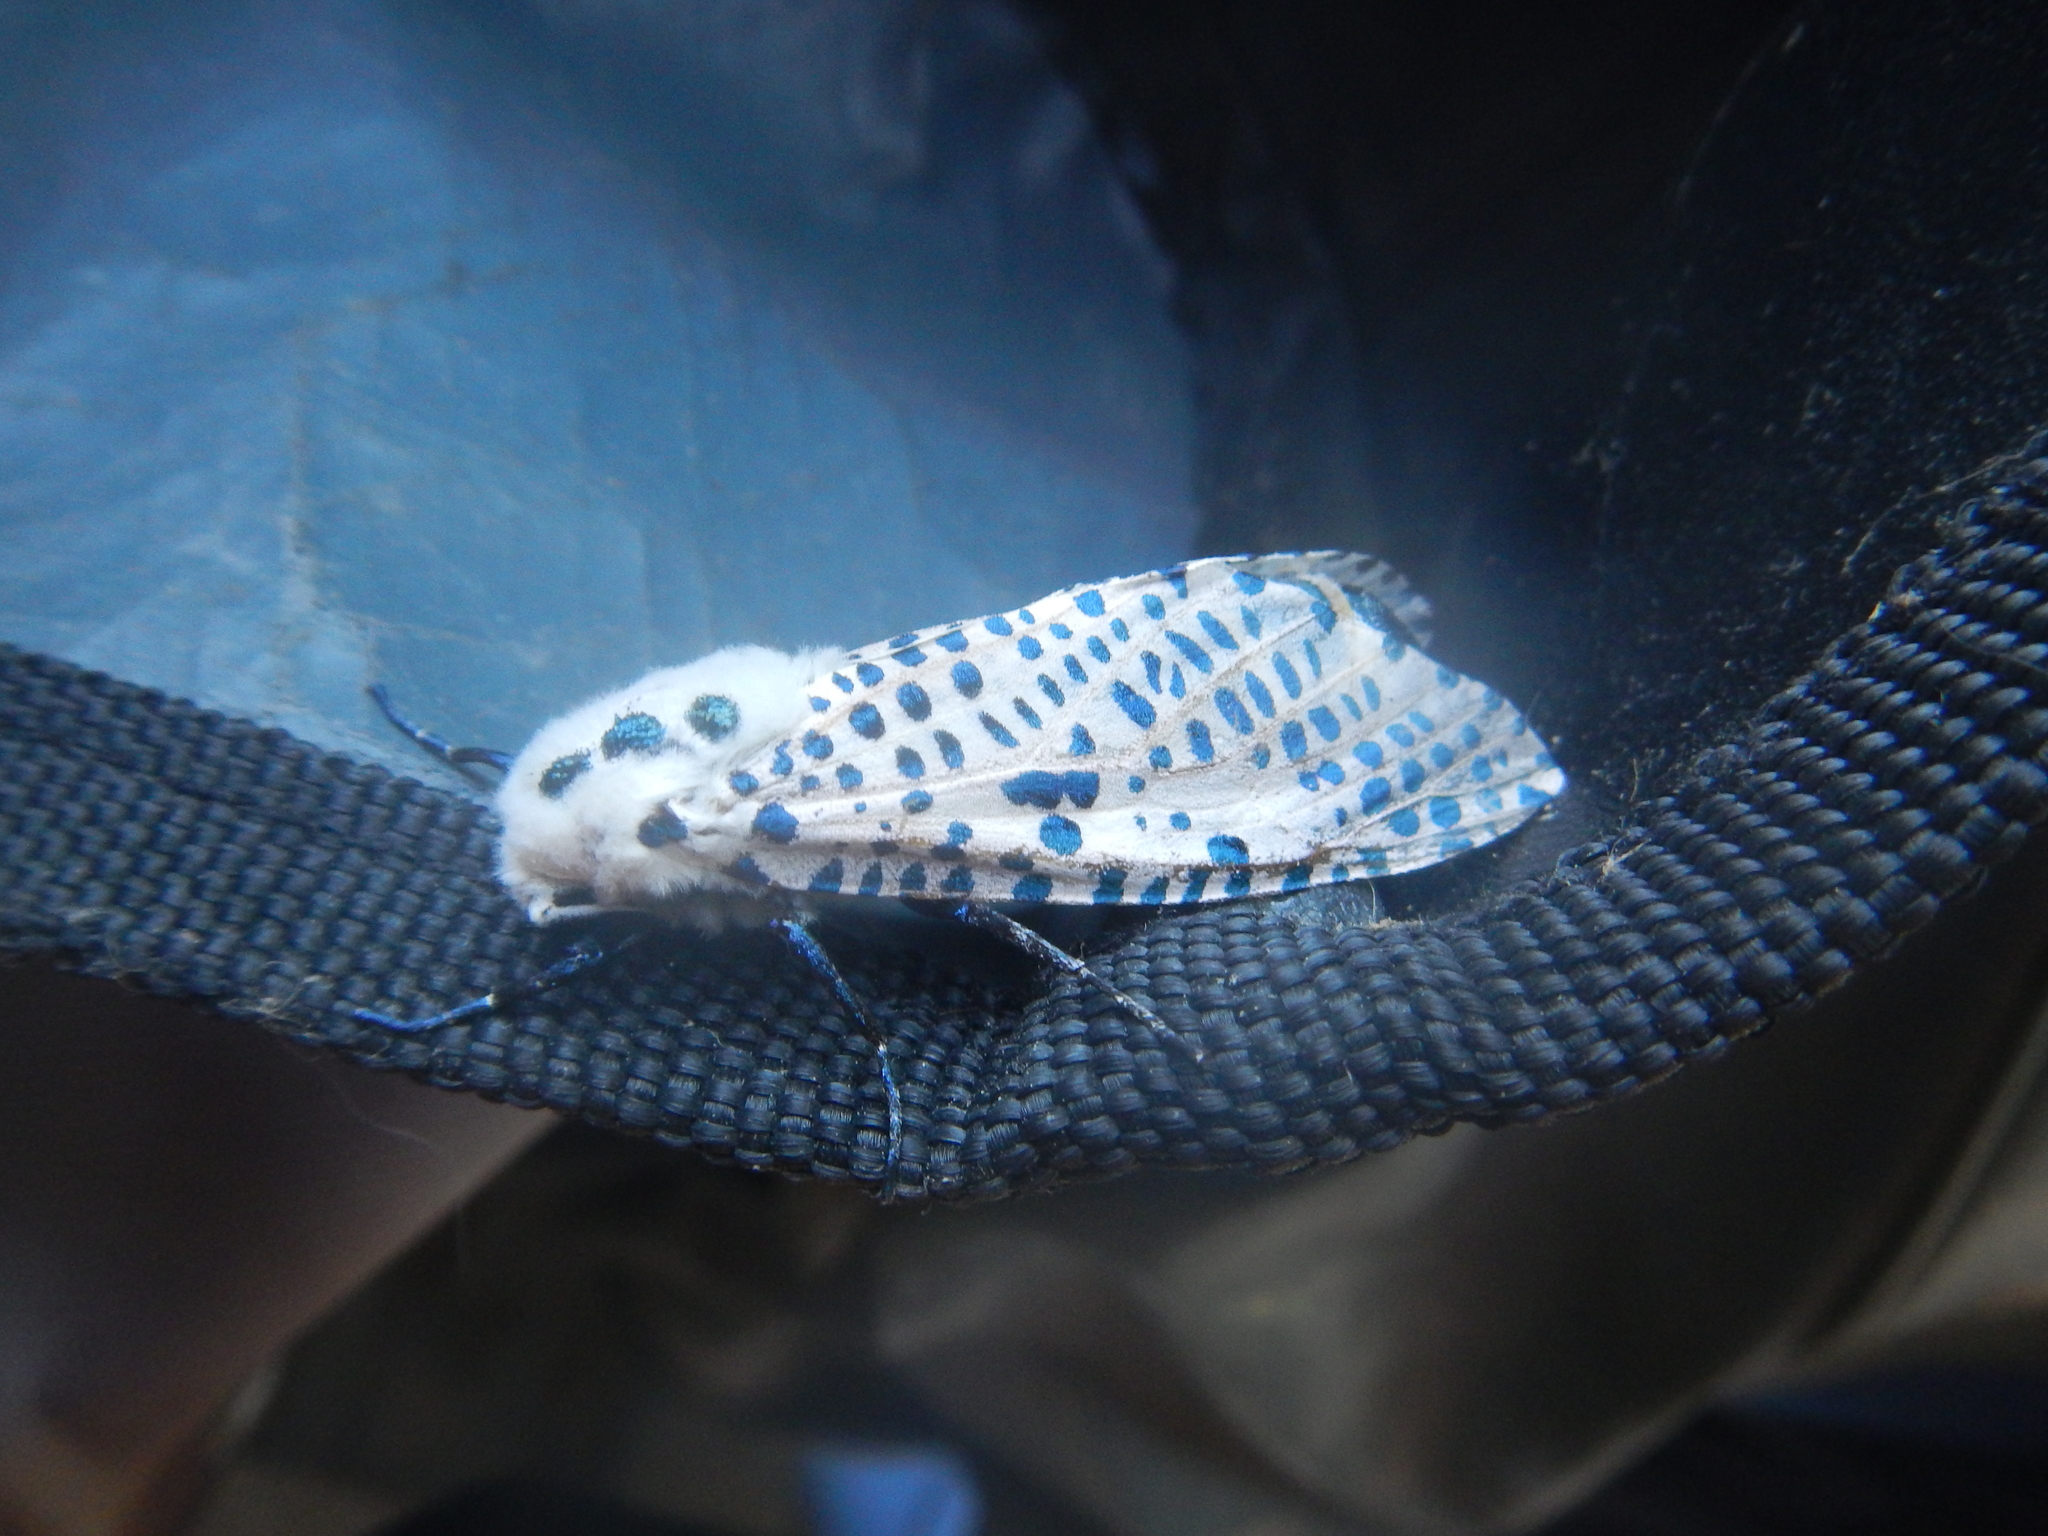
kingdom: Animalia
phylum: Arthropoda
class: Insecta
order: Lepidoptera
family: Cossidae
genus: Zeuzera
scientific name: Zeuzera pyrina
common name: Leopard moth
